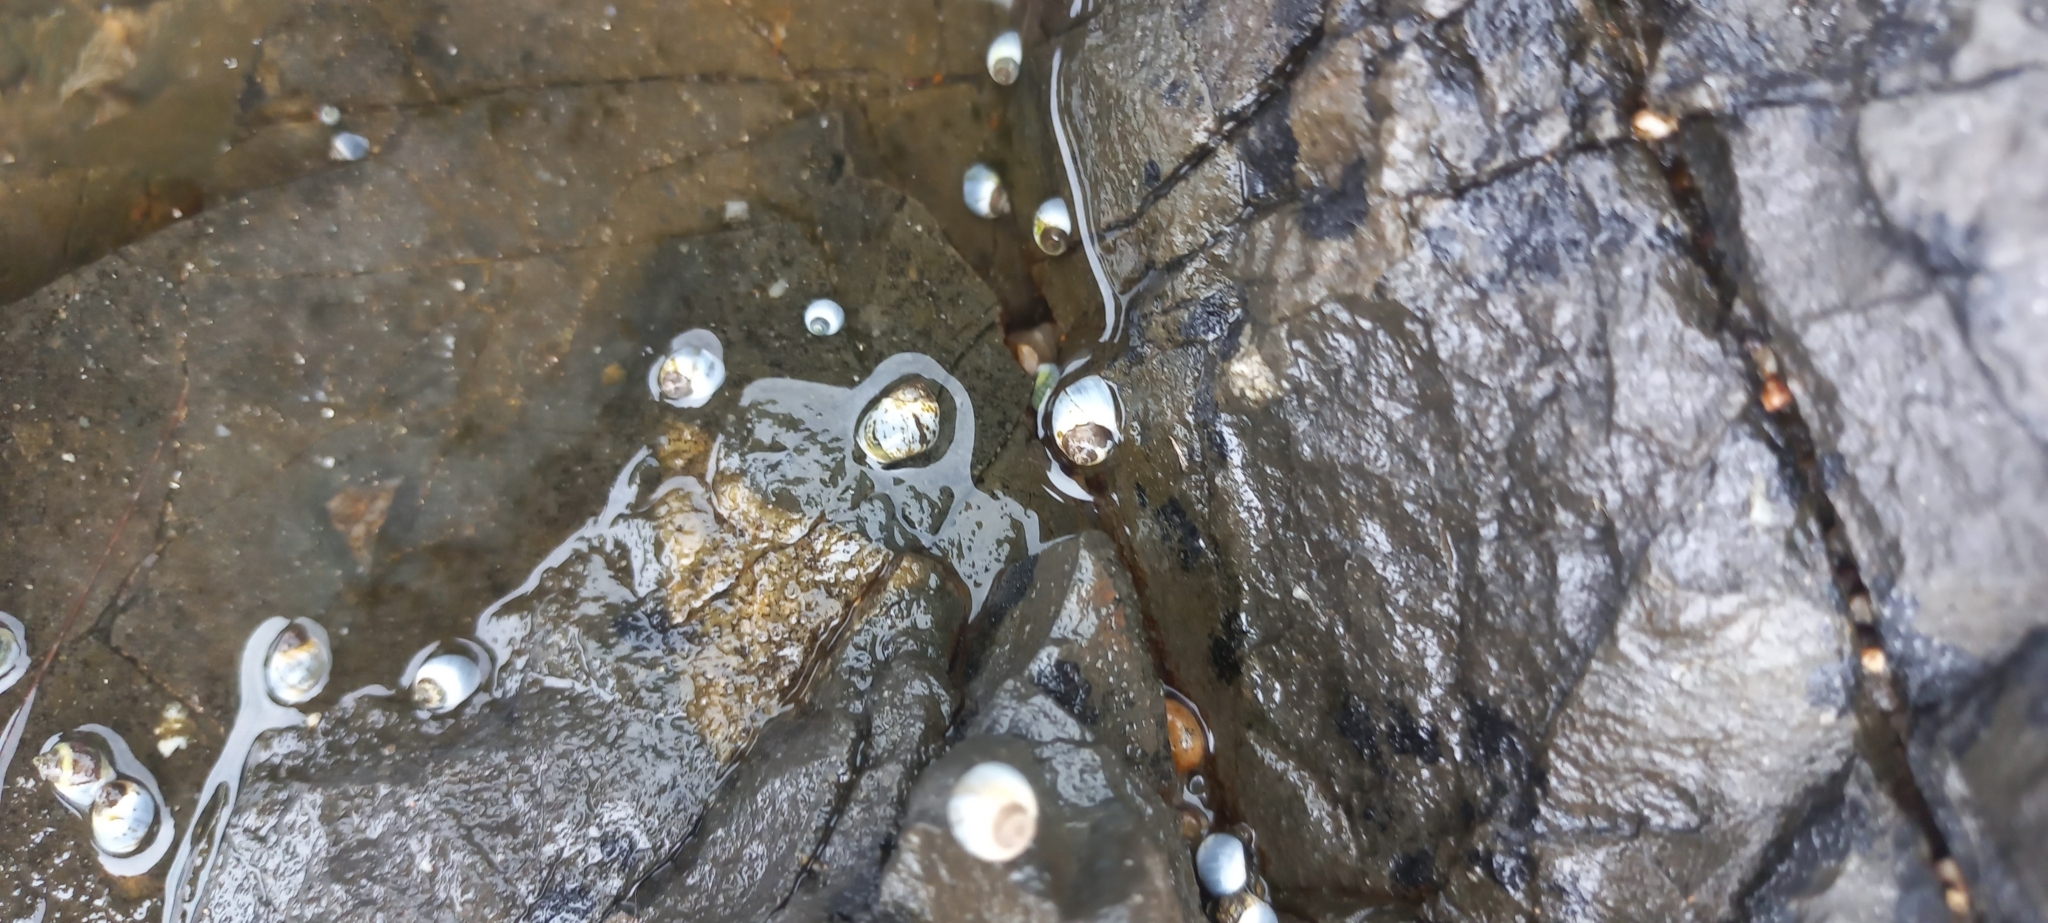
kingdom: Animalia
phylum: Mollusca
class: Gastropoda
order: Littorinimorpha
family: Littorinidae
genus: Afrolittorina
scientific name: Afrolittorina africana
